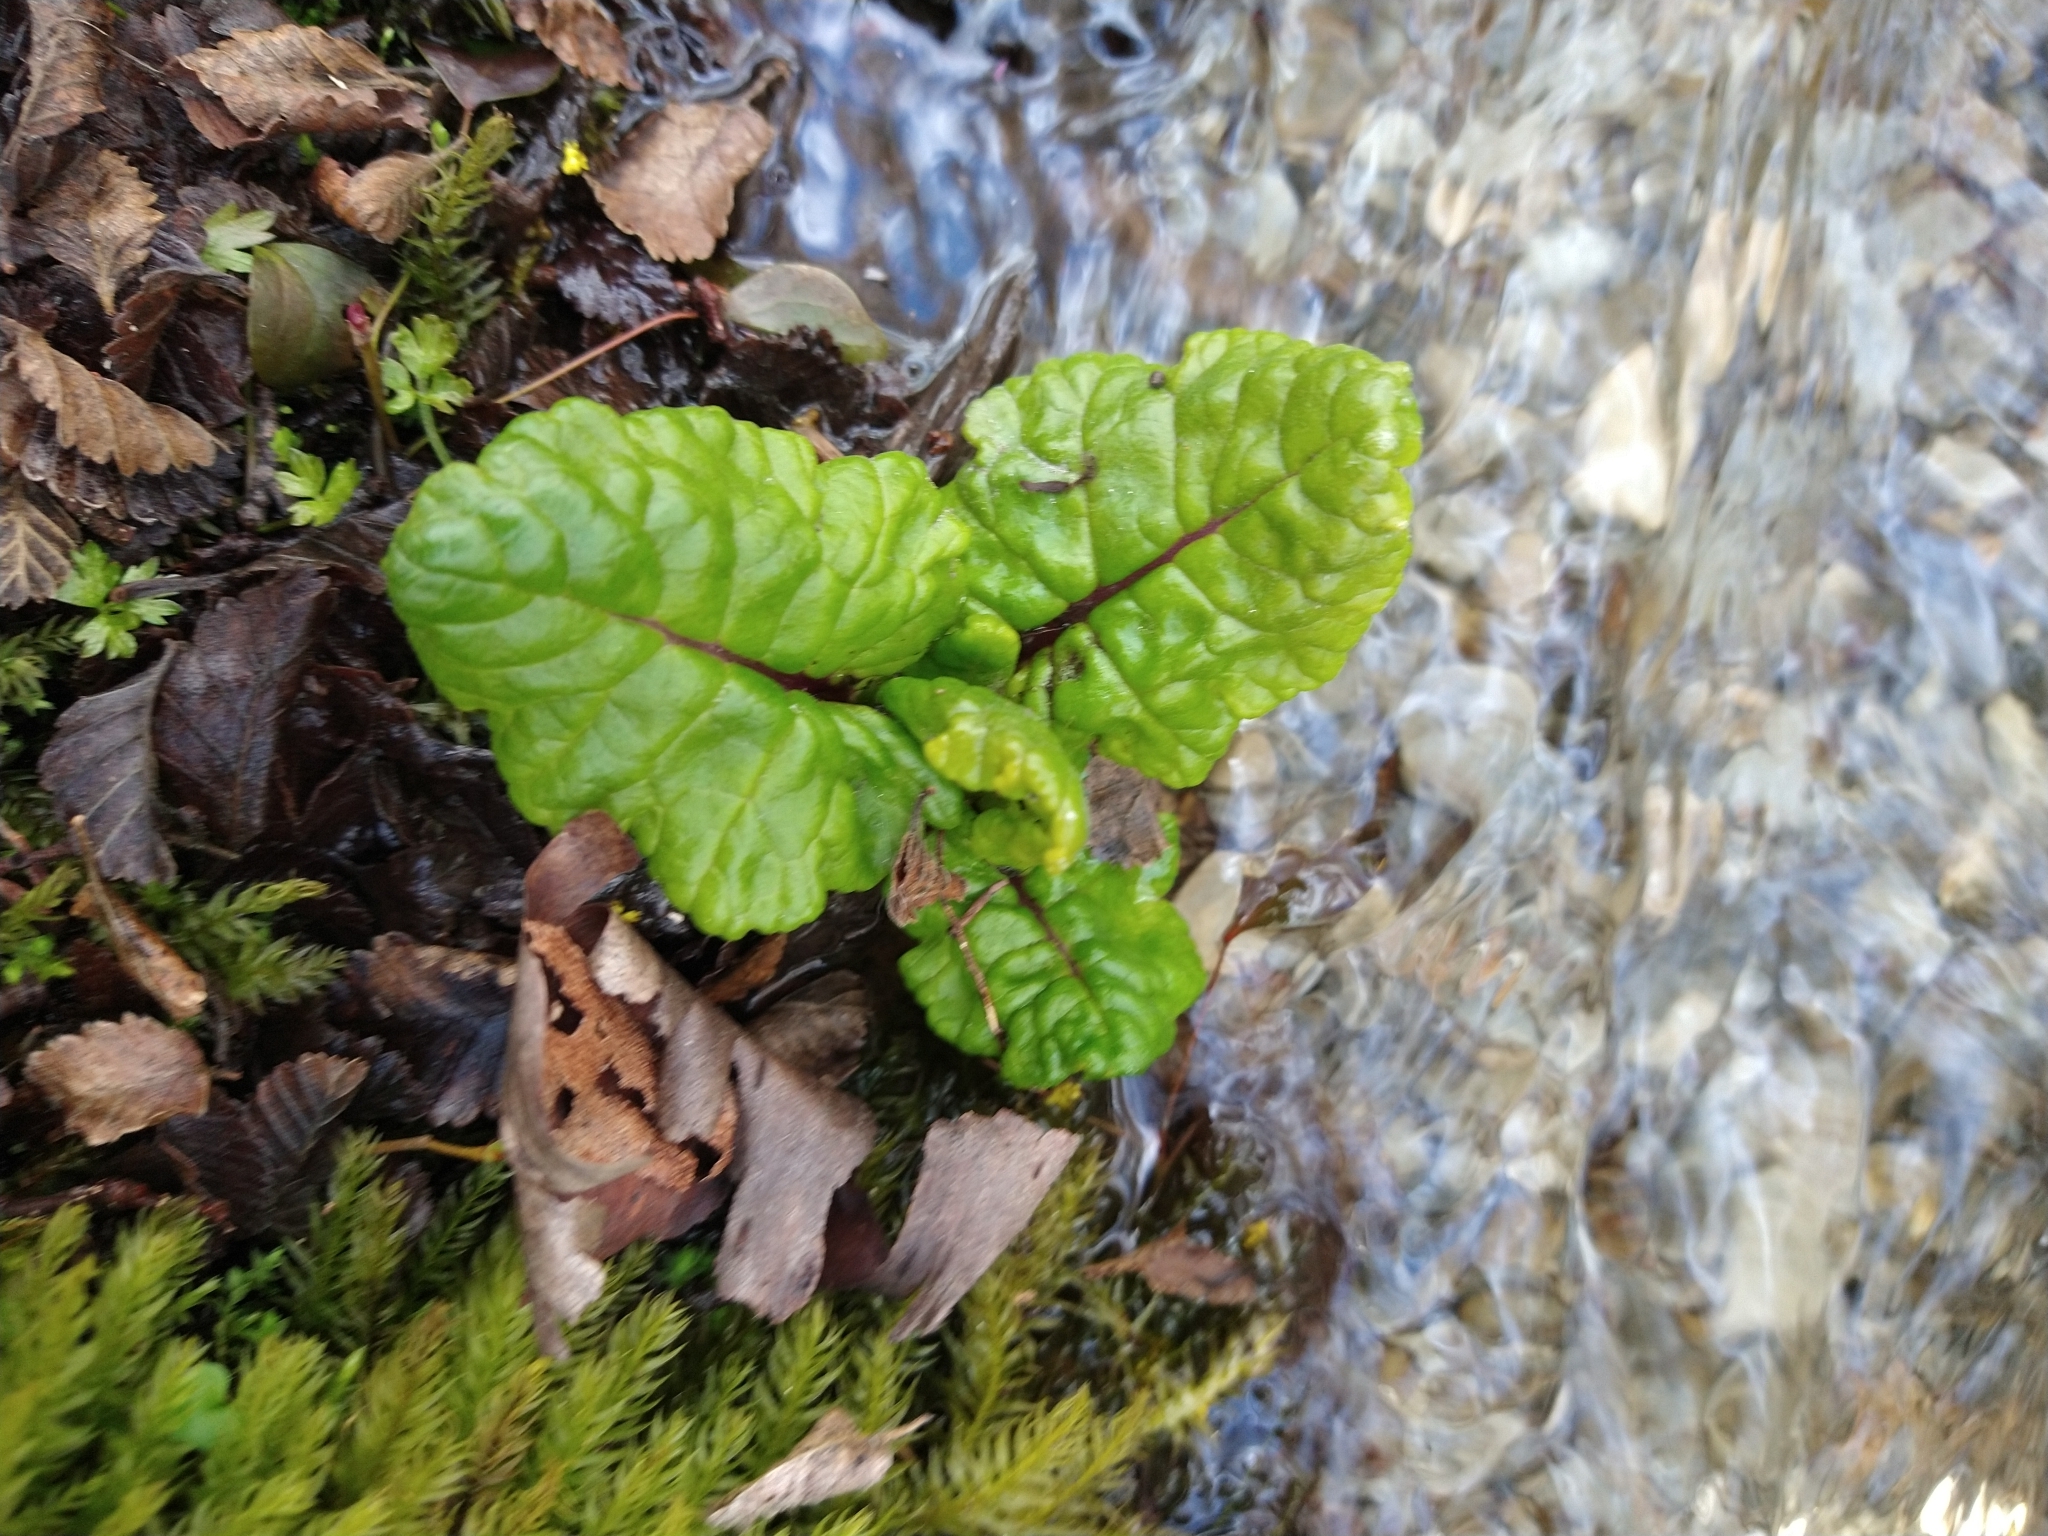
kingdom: Plantae
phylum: Tracheophyta
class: Magnoliopsida
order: Asterales
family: Asteraceae
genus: Iocenes
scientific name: Iocenes virens
